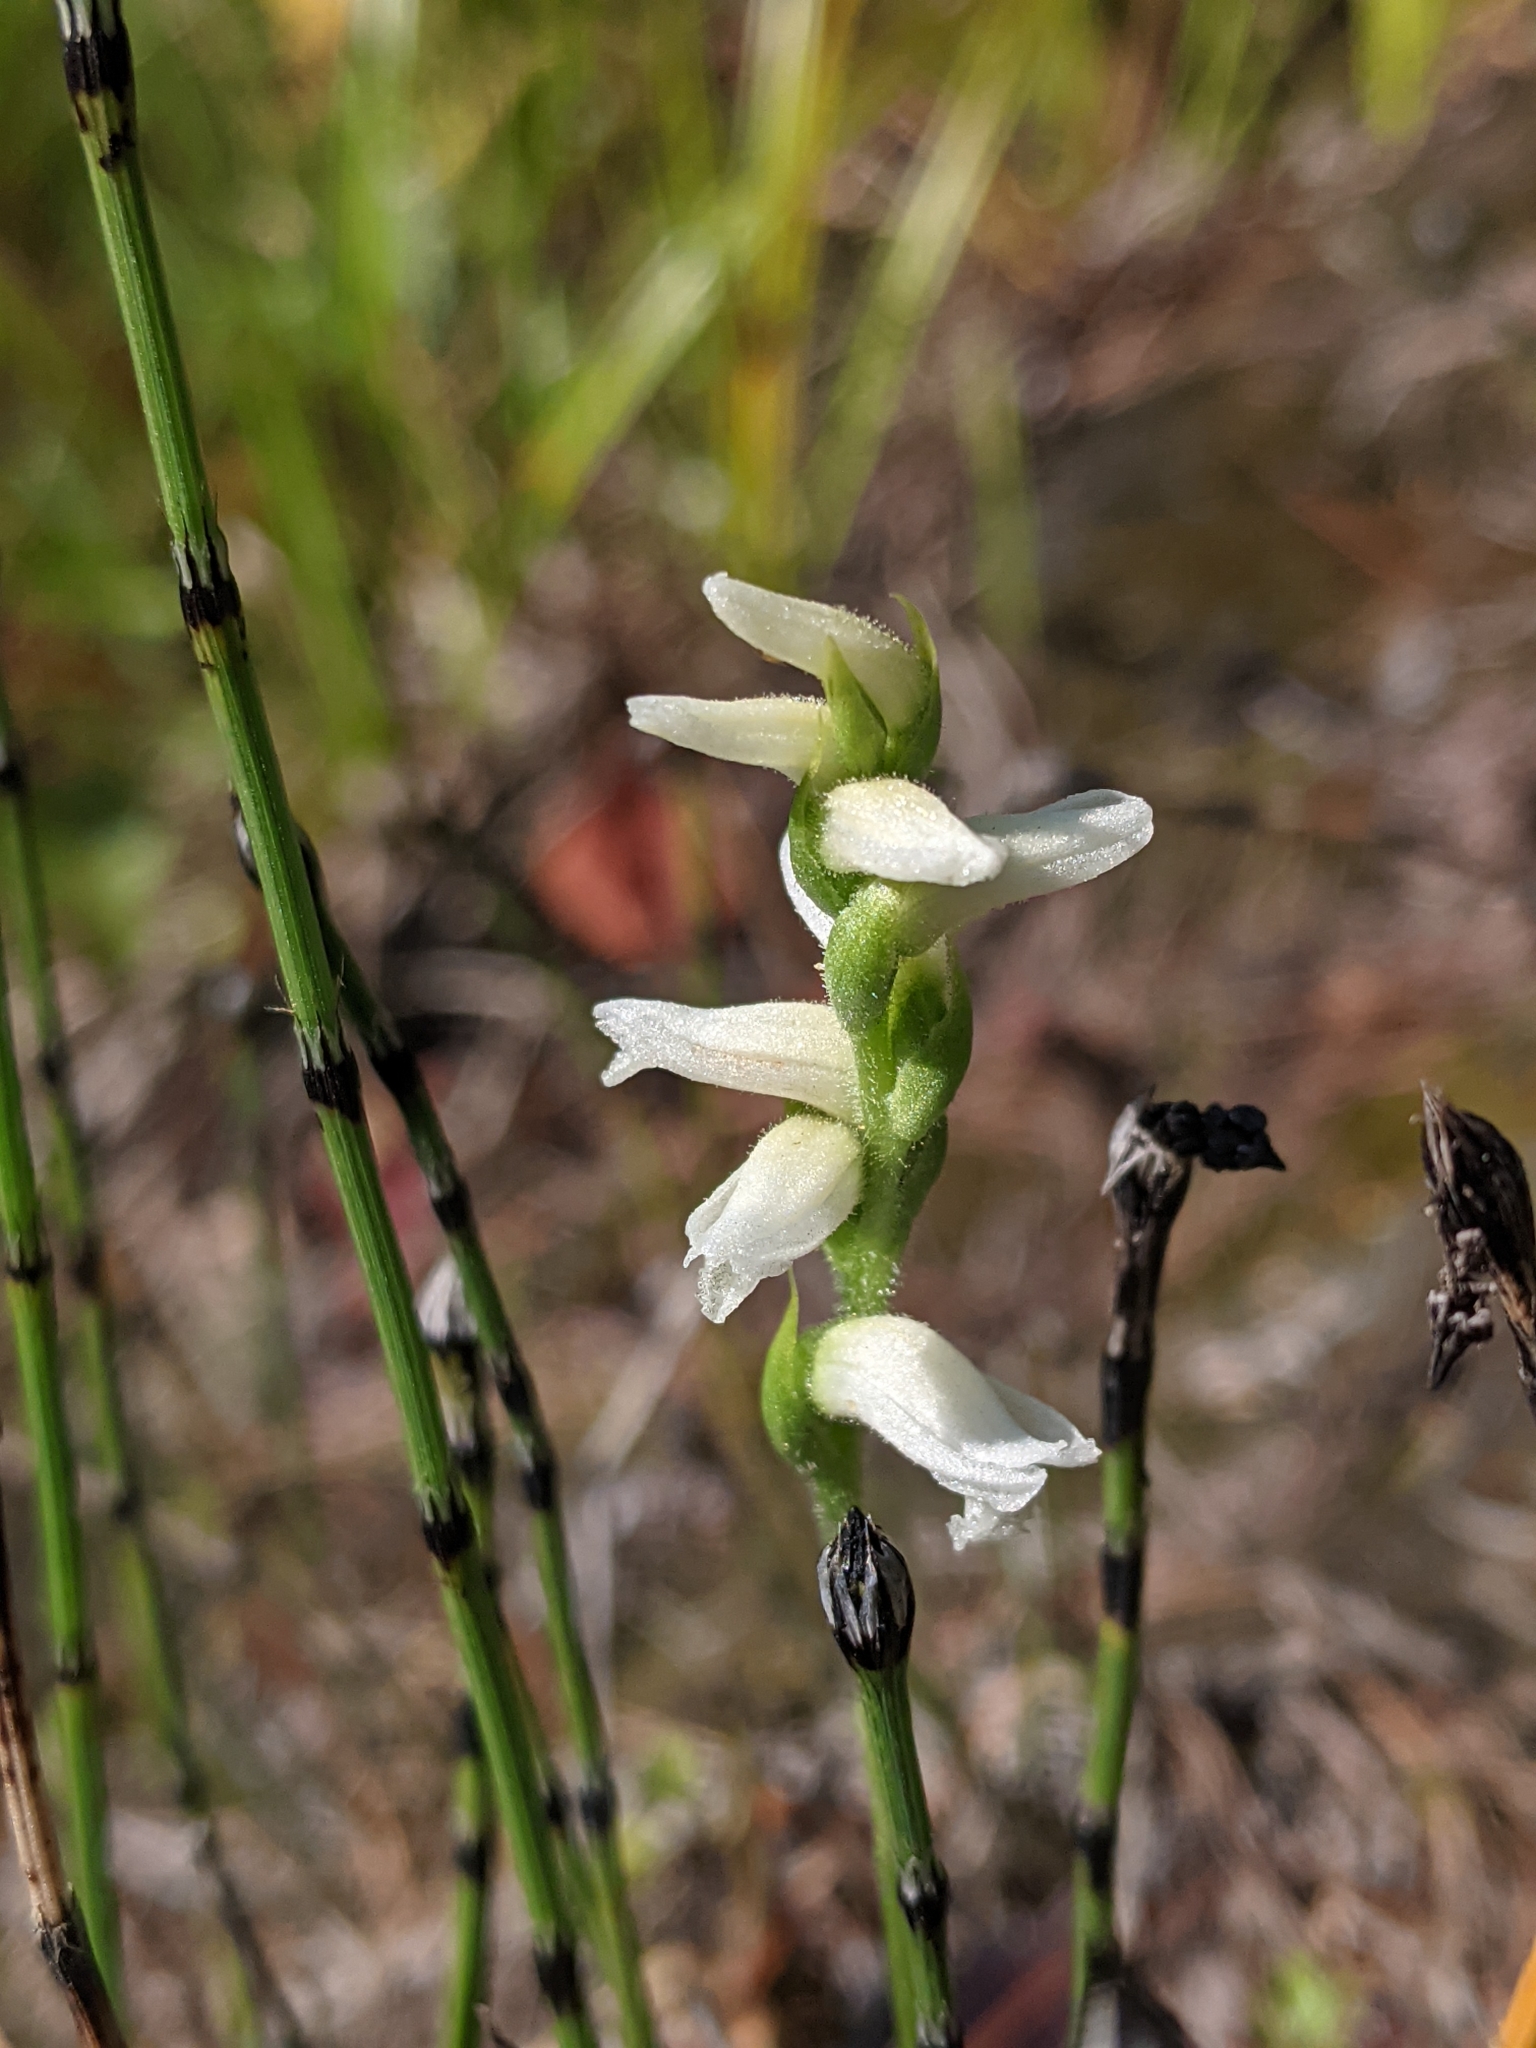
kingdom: Plantae
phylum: Tracheophyta
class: Liliopsida
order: Asparagales
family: Orchidaceae
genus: Spiranthes
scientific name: Spiranthes incurva
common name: Sphinx ladies'-tresses
